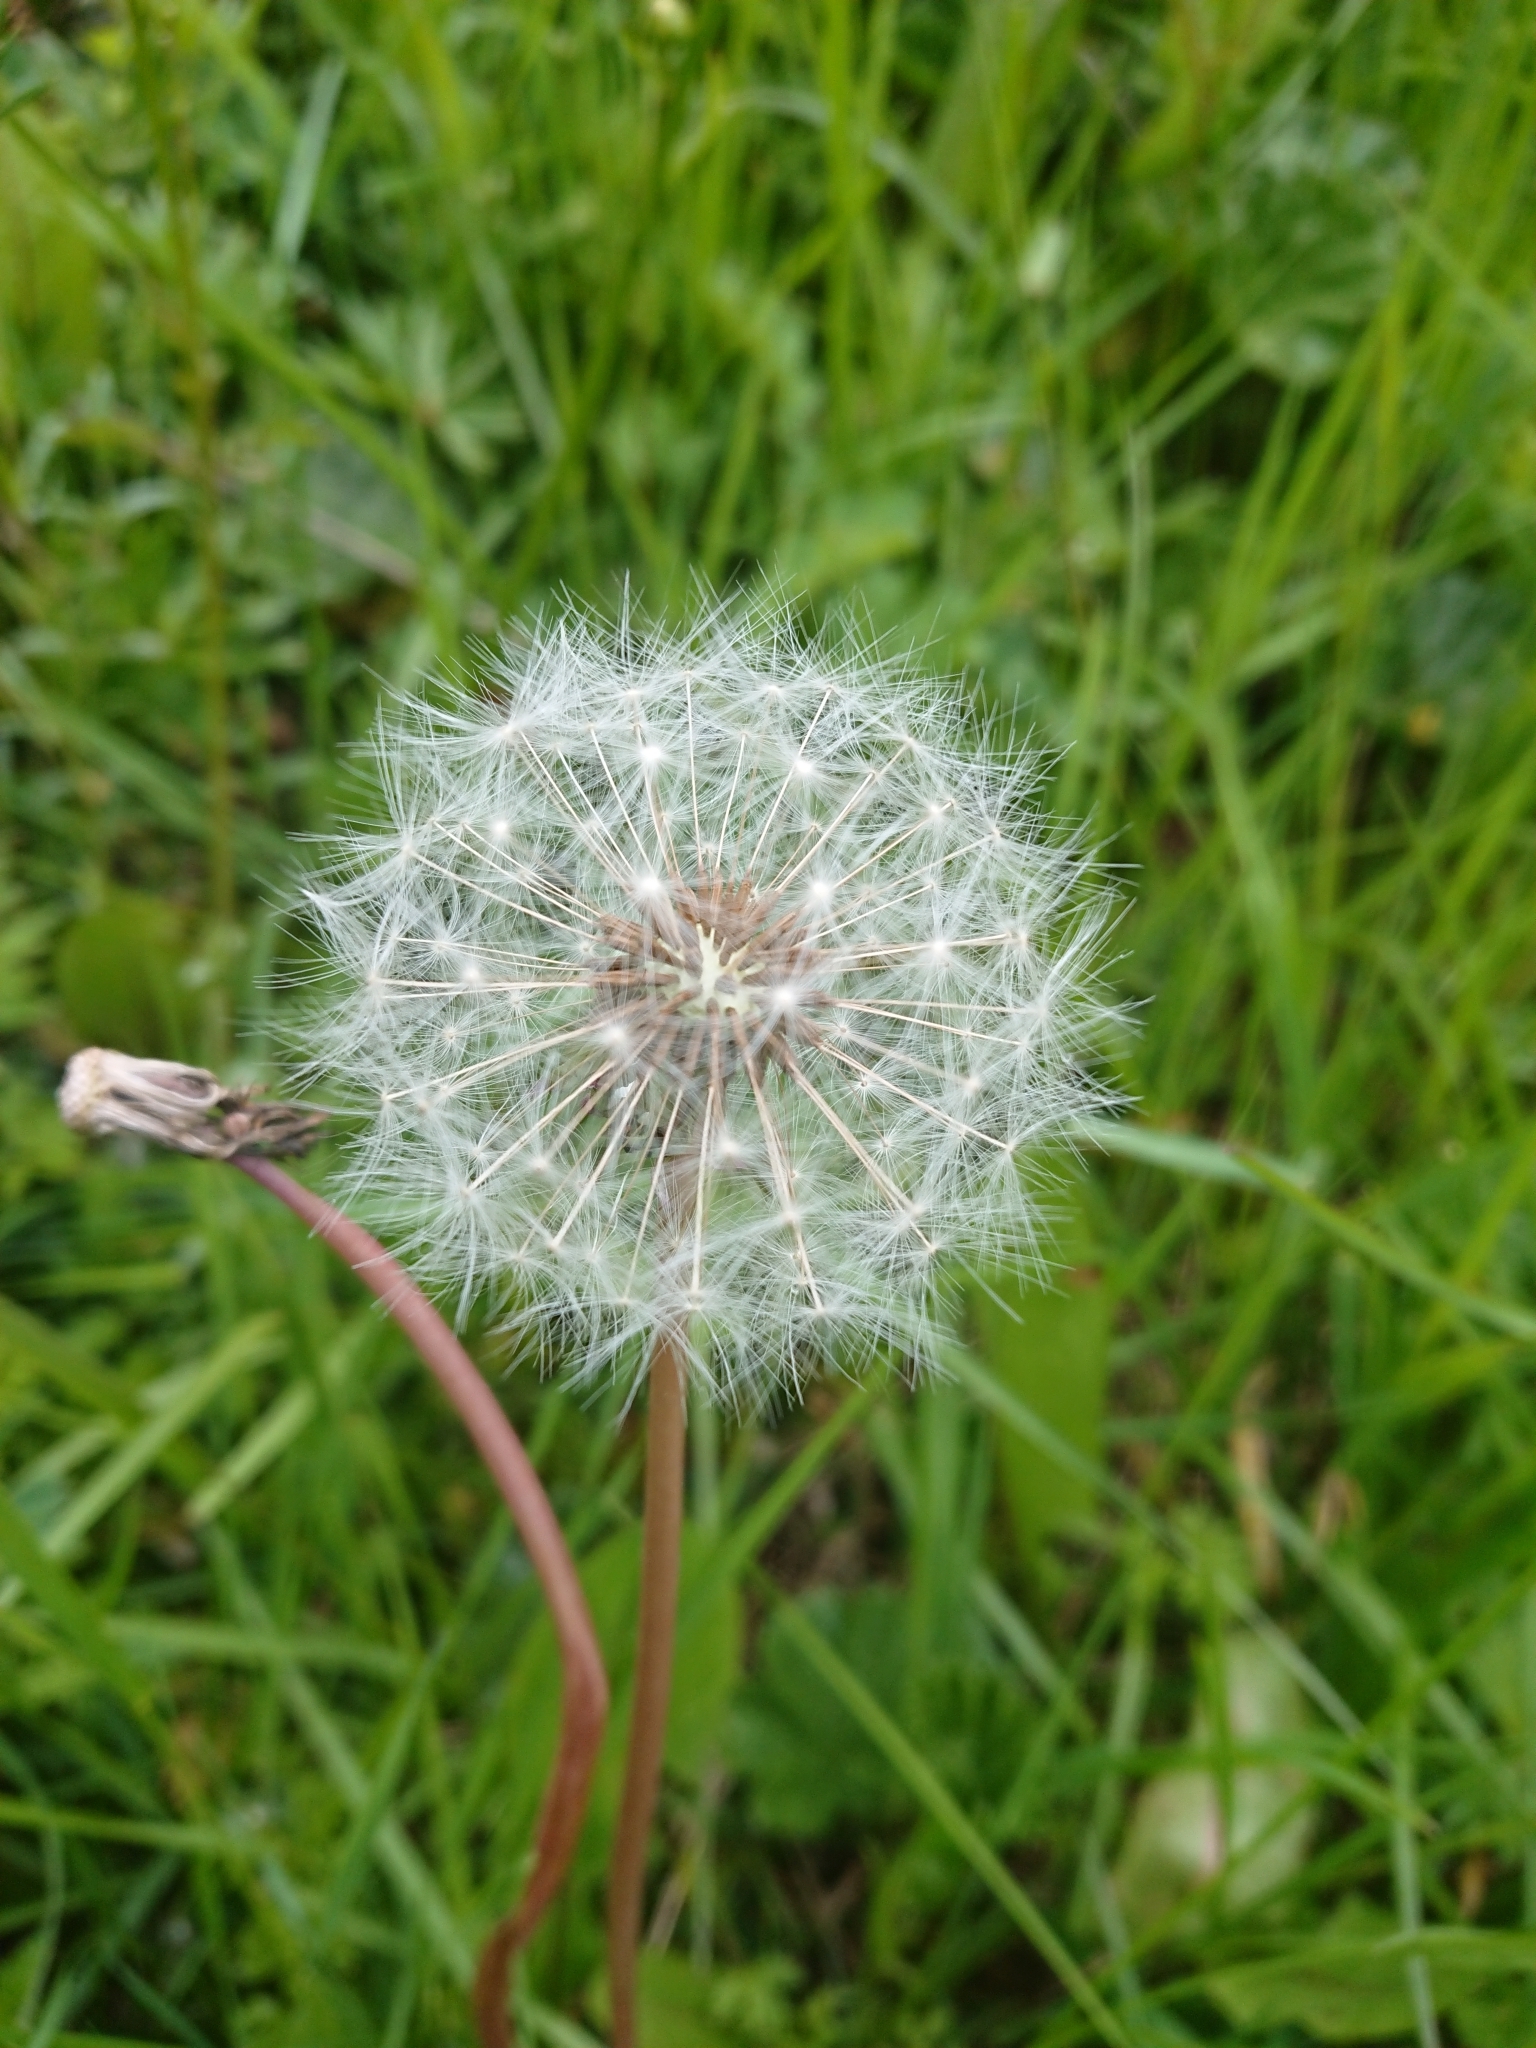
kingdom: Plantae
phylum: Tracheophyta
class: Magnoliopsida
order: Asterales
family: Asteraceae
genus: Taraxacum
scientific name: Taraxacum officinale
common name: Common dandelion
